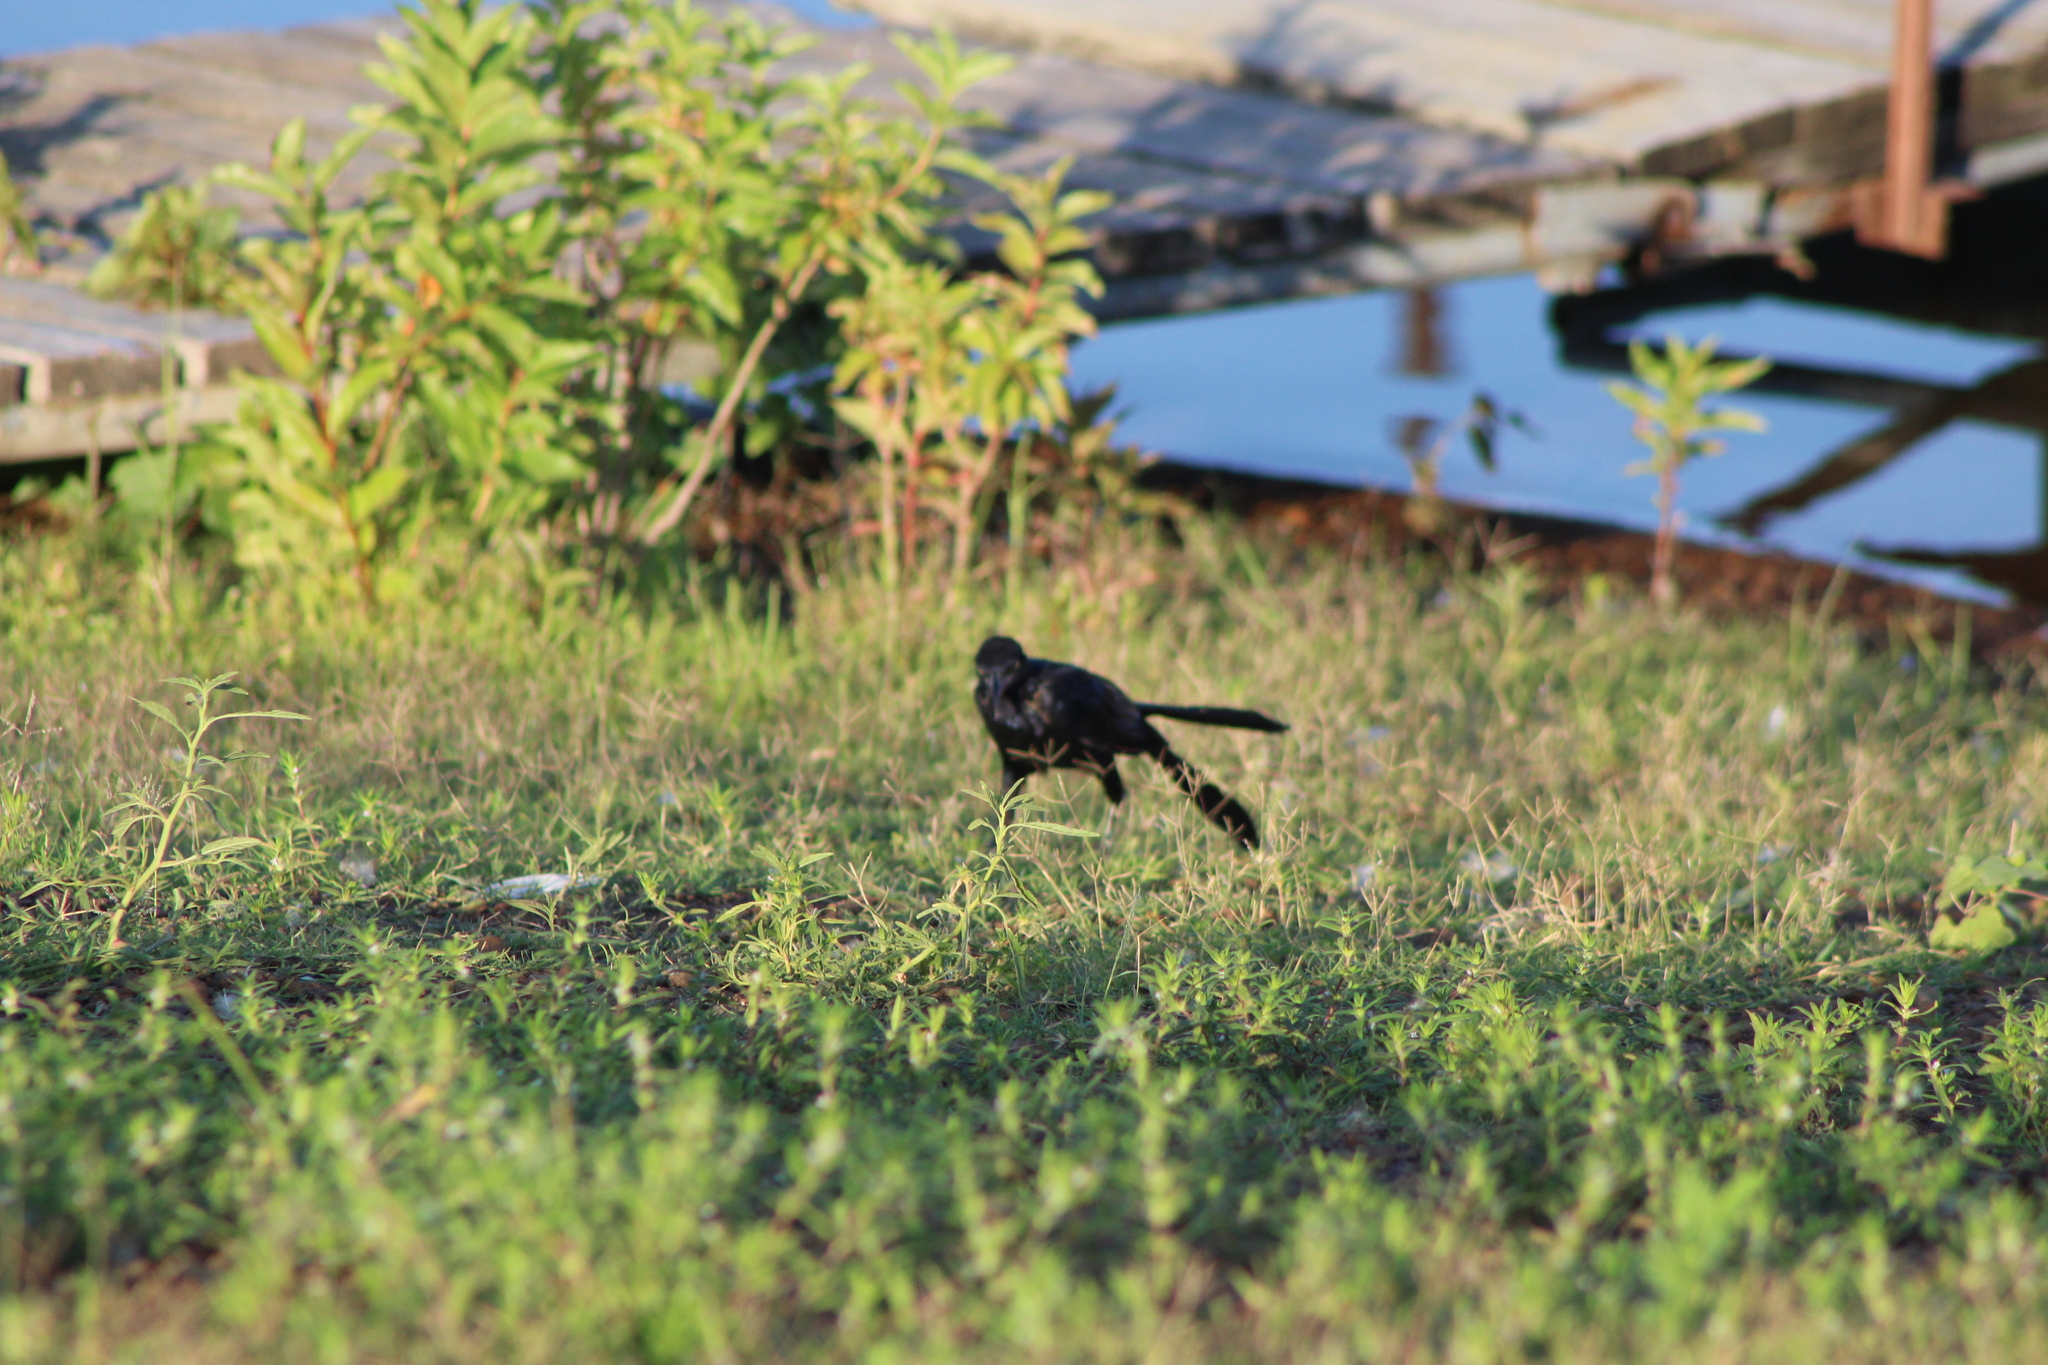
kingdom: Animalia
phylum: Chordata
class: Aves
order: Passeriformes
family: Icteridae
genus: Quiscalus
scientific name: Quiscalus mexicanus
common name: Great-tailed grackle
